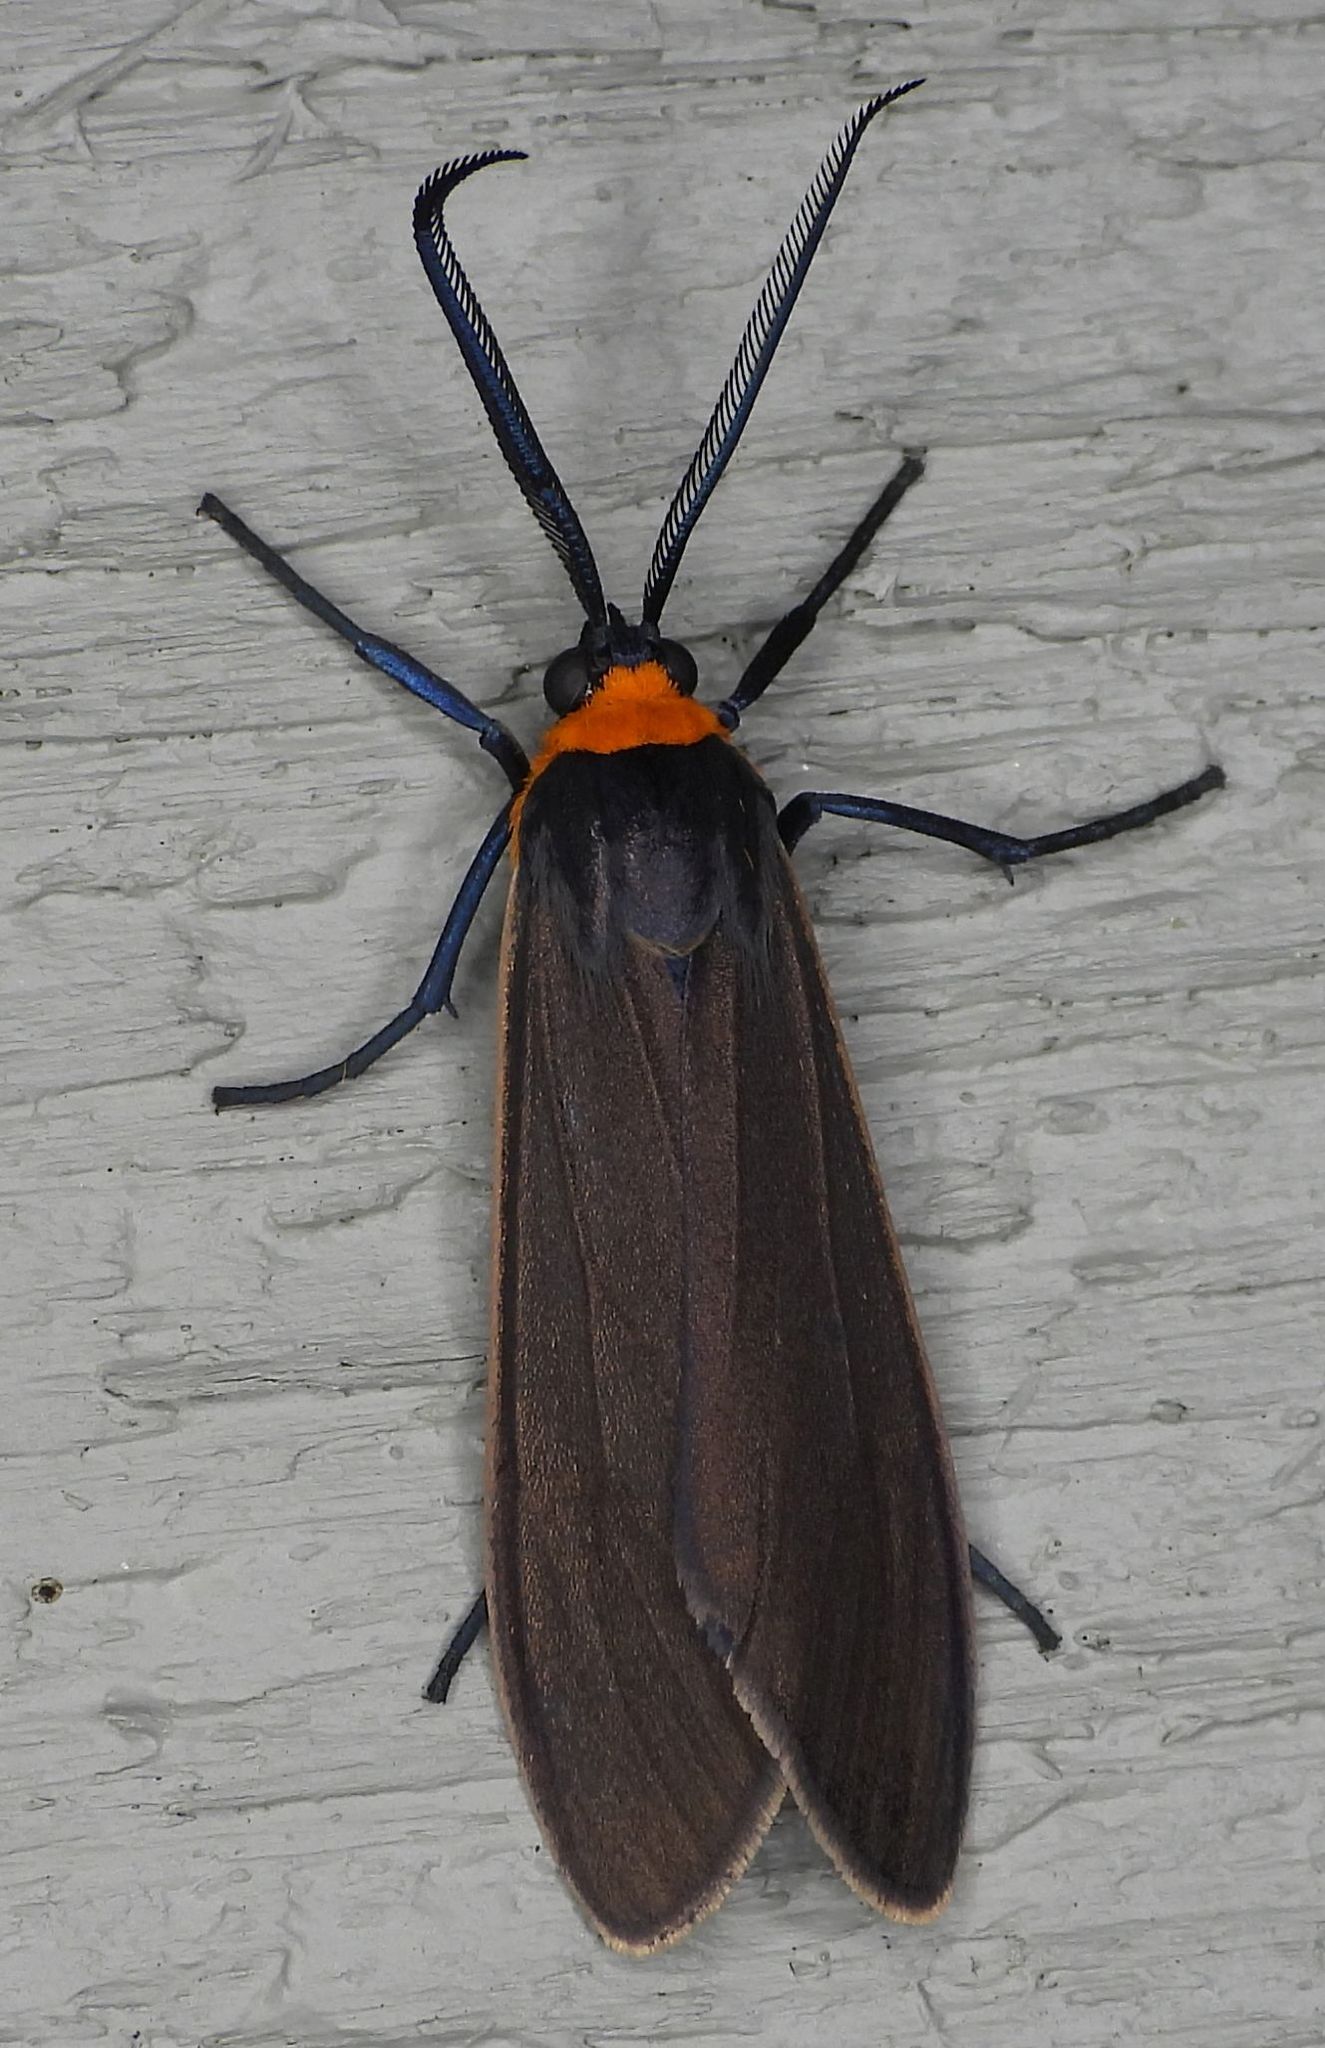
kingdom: Animalia
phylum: Arthropoda
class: Insecta
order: Lepidoptera
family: Erebidae
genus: Cisseps
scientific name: Cisseps fulvicollis
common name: Yellow-collared scape moth
